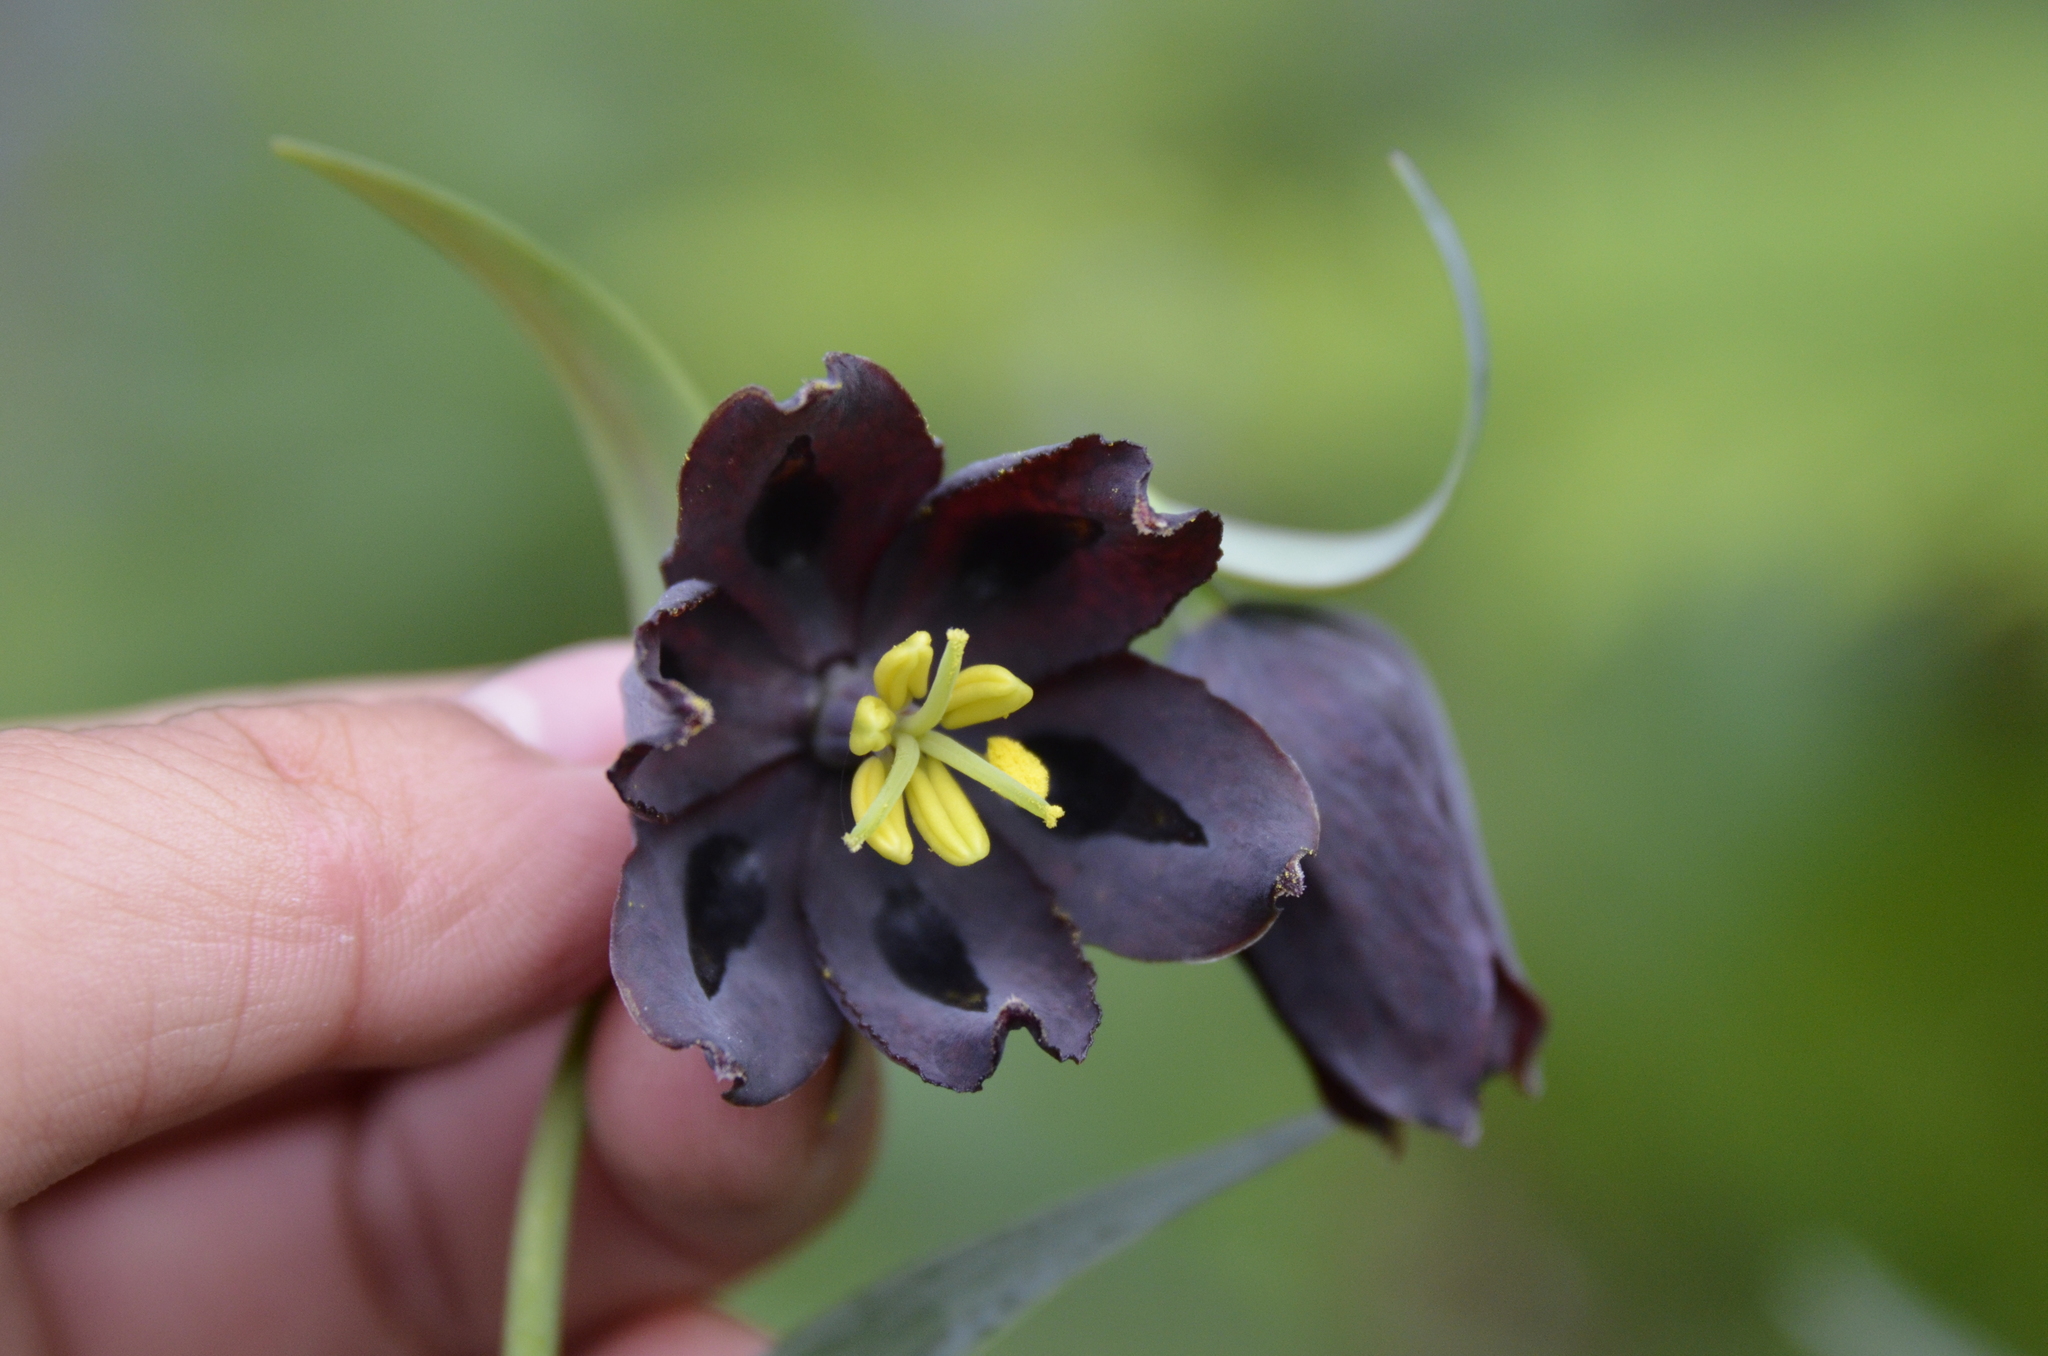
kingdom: Plantae
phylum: Tracheophyta
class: Liliopsida
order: Liliales
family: Liliaceae
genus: Fritillaria
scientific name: Fritillaria affinis
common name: Ojai fritillary
